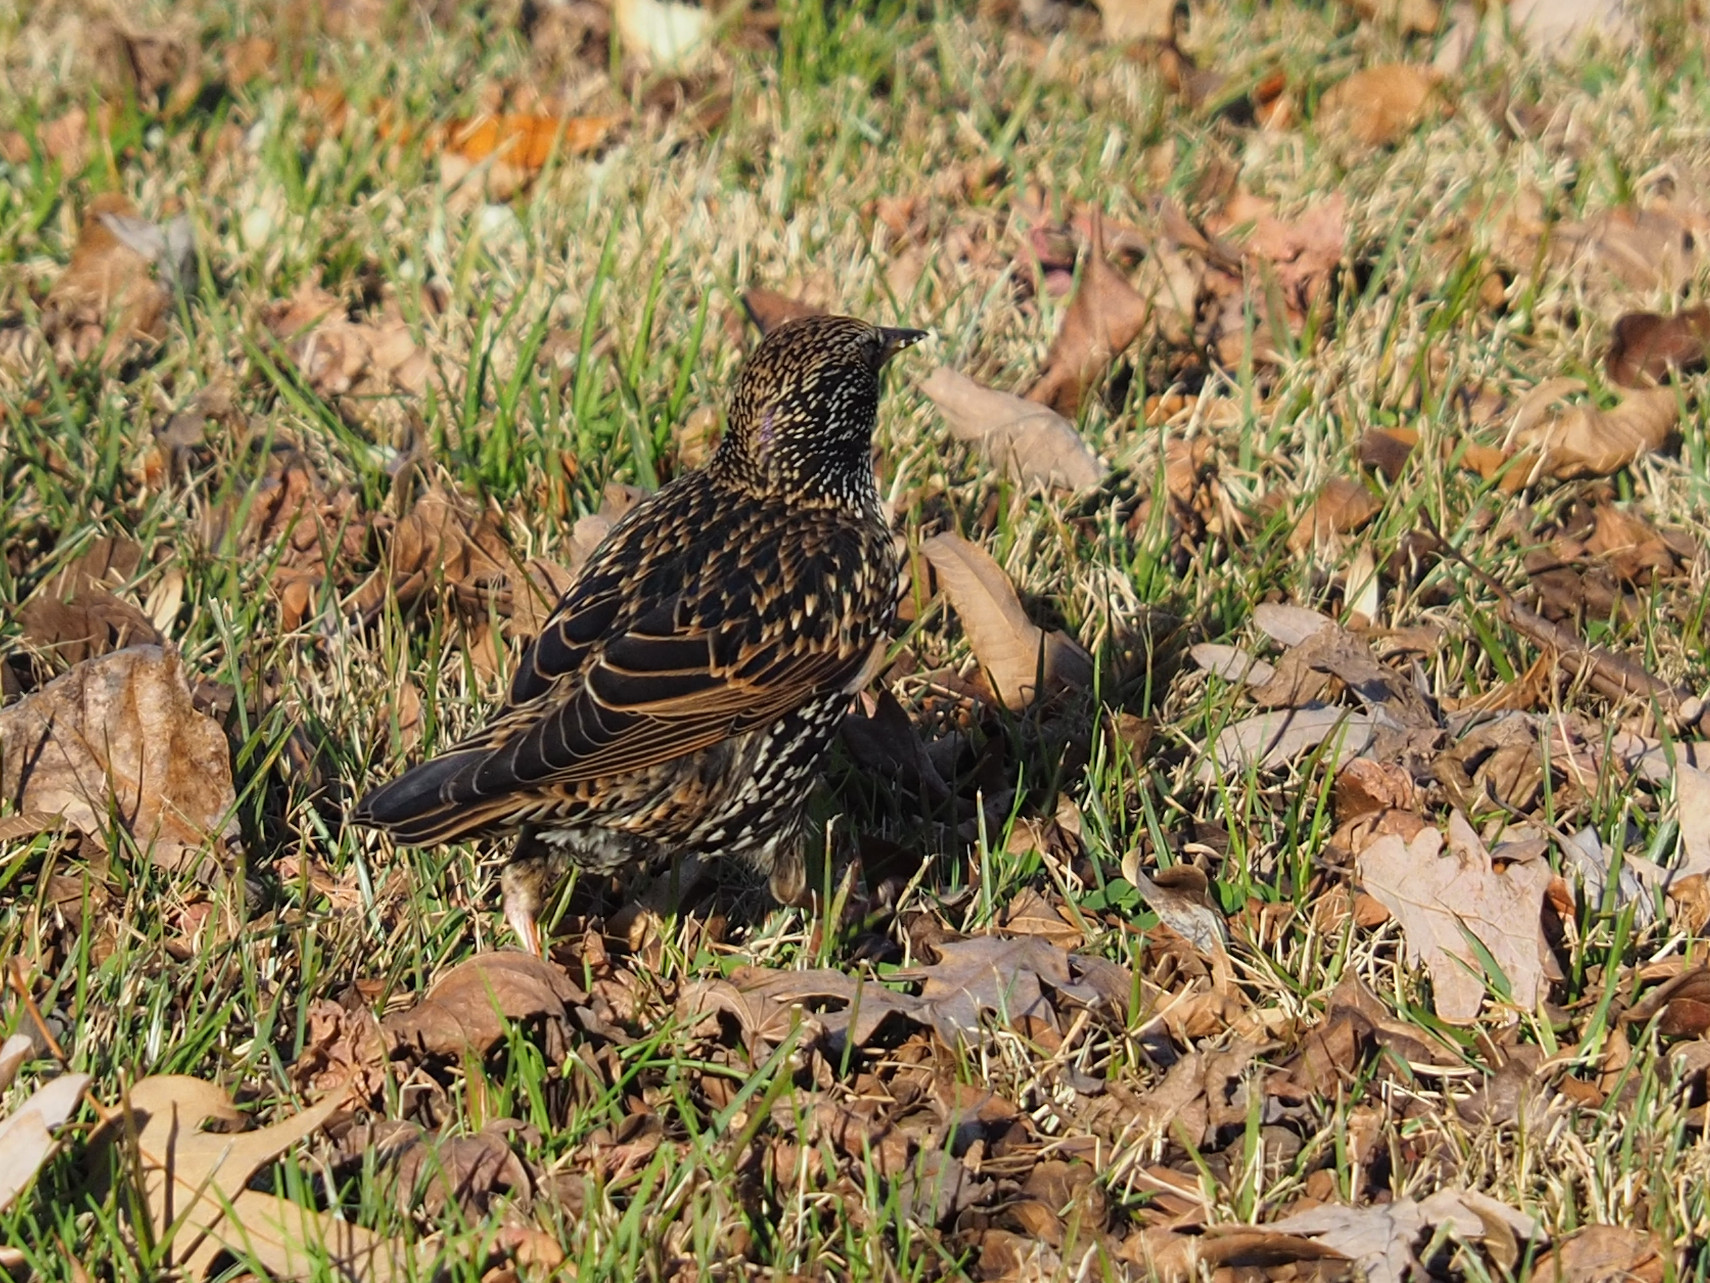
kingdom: Animalia
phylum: Chordata
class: Aves
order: Passeriformes
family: Sturnidae
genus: Sturnus
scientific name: Sturnus vulgaris
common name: Common starling
